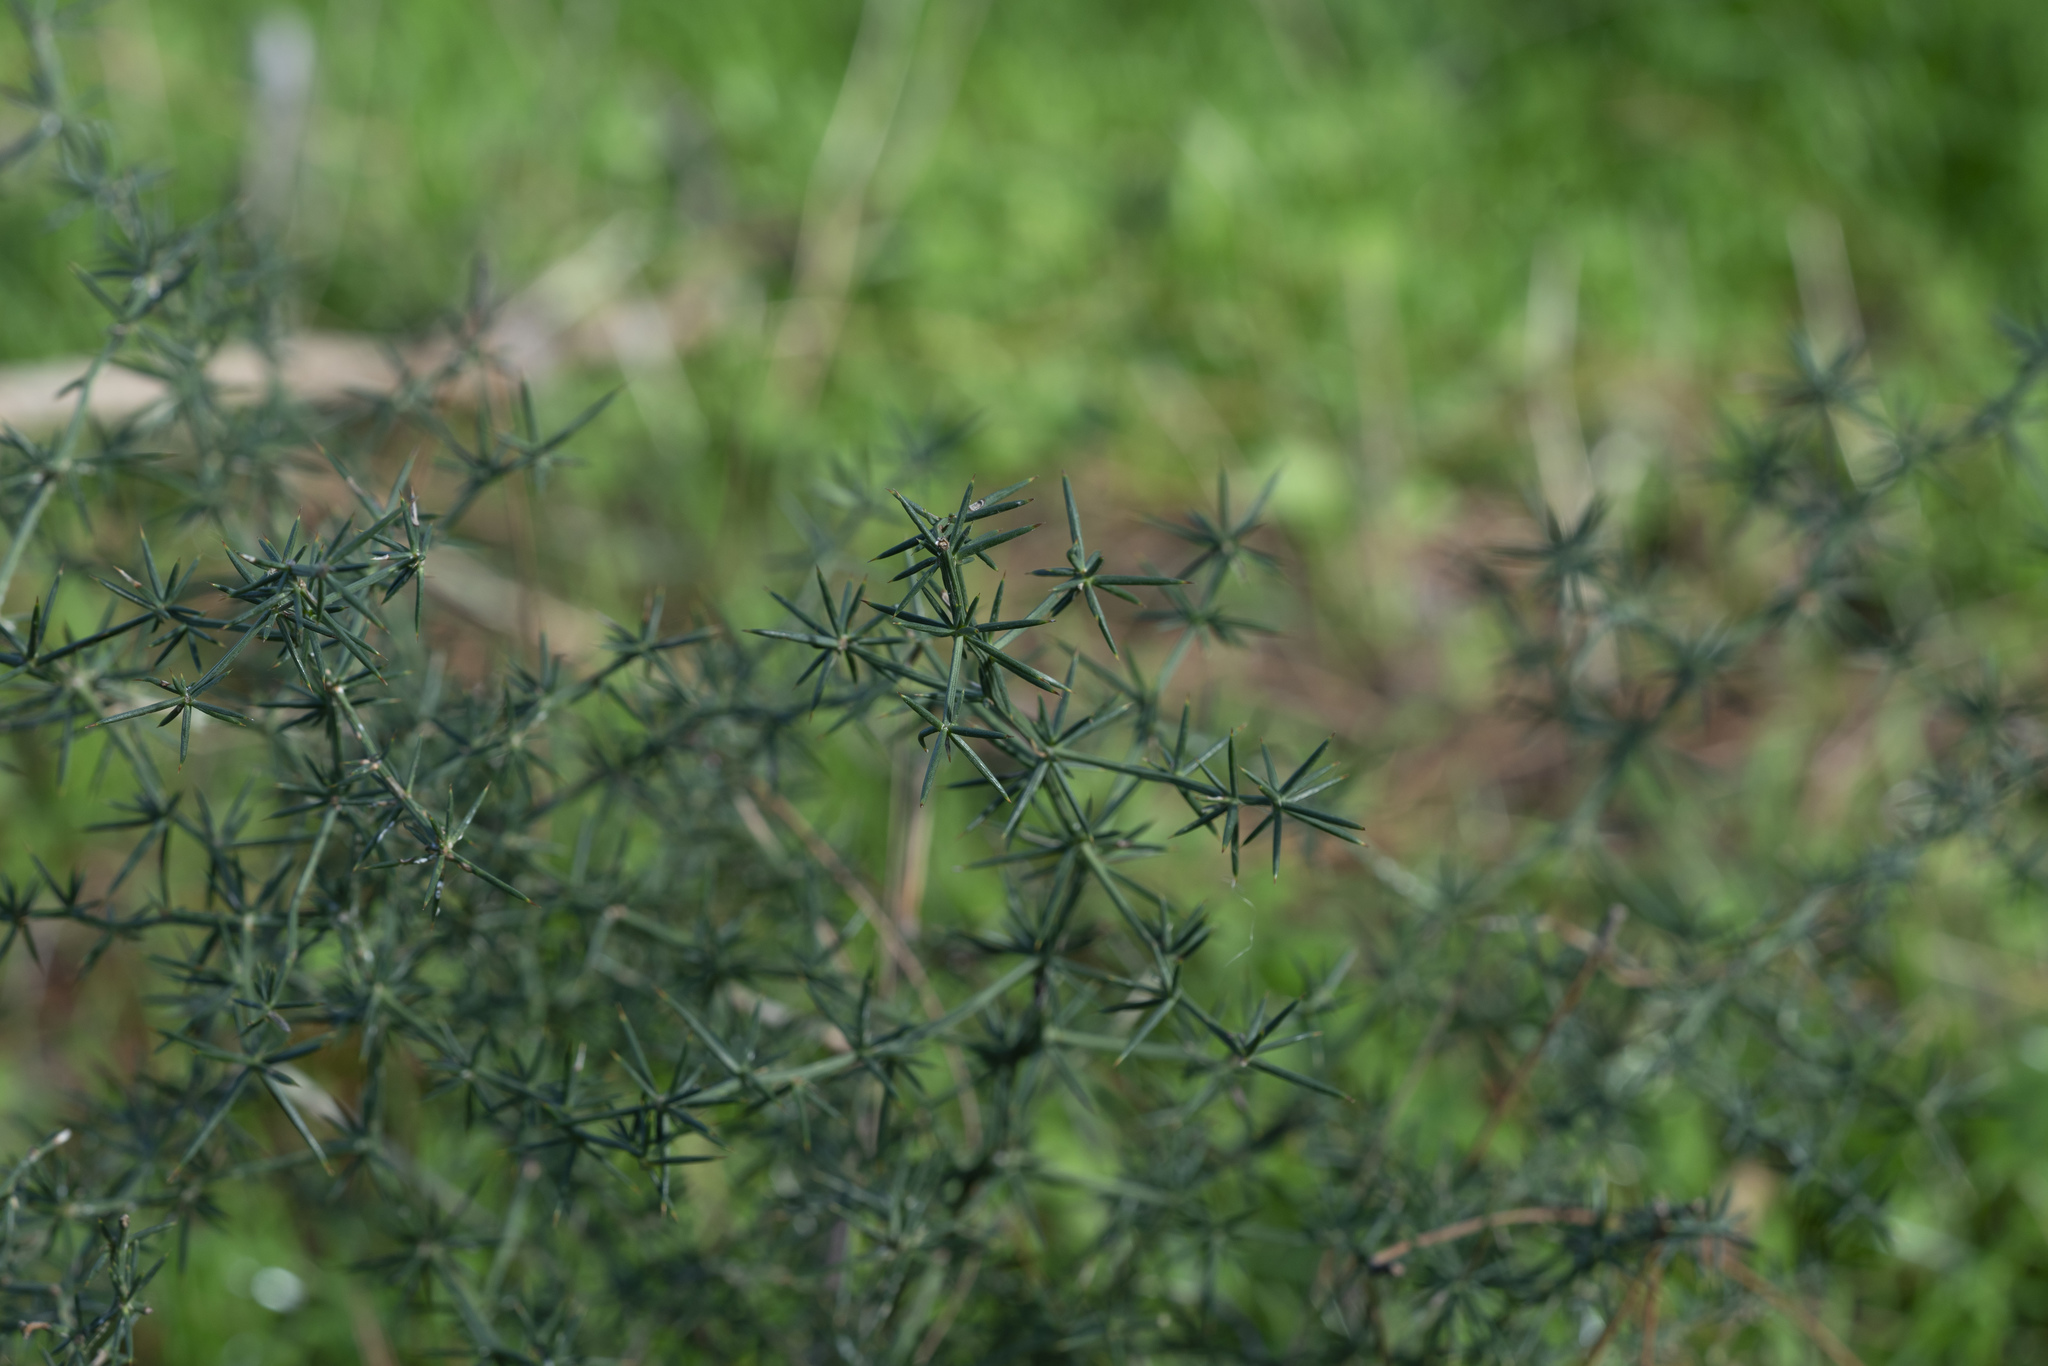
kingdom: Plantae
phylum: Tracheophyta
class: Liliopsida
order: Asparagales
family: Asparagaceae
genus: Asparagus
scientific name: Asparagus aphyllus
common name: Mediterranean asparagus
